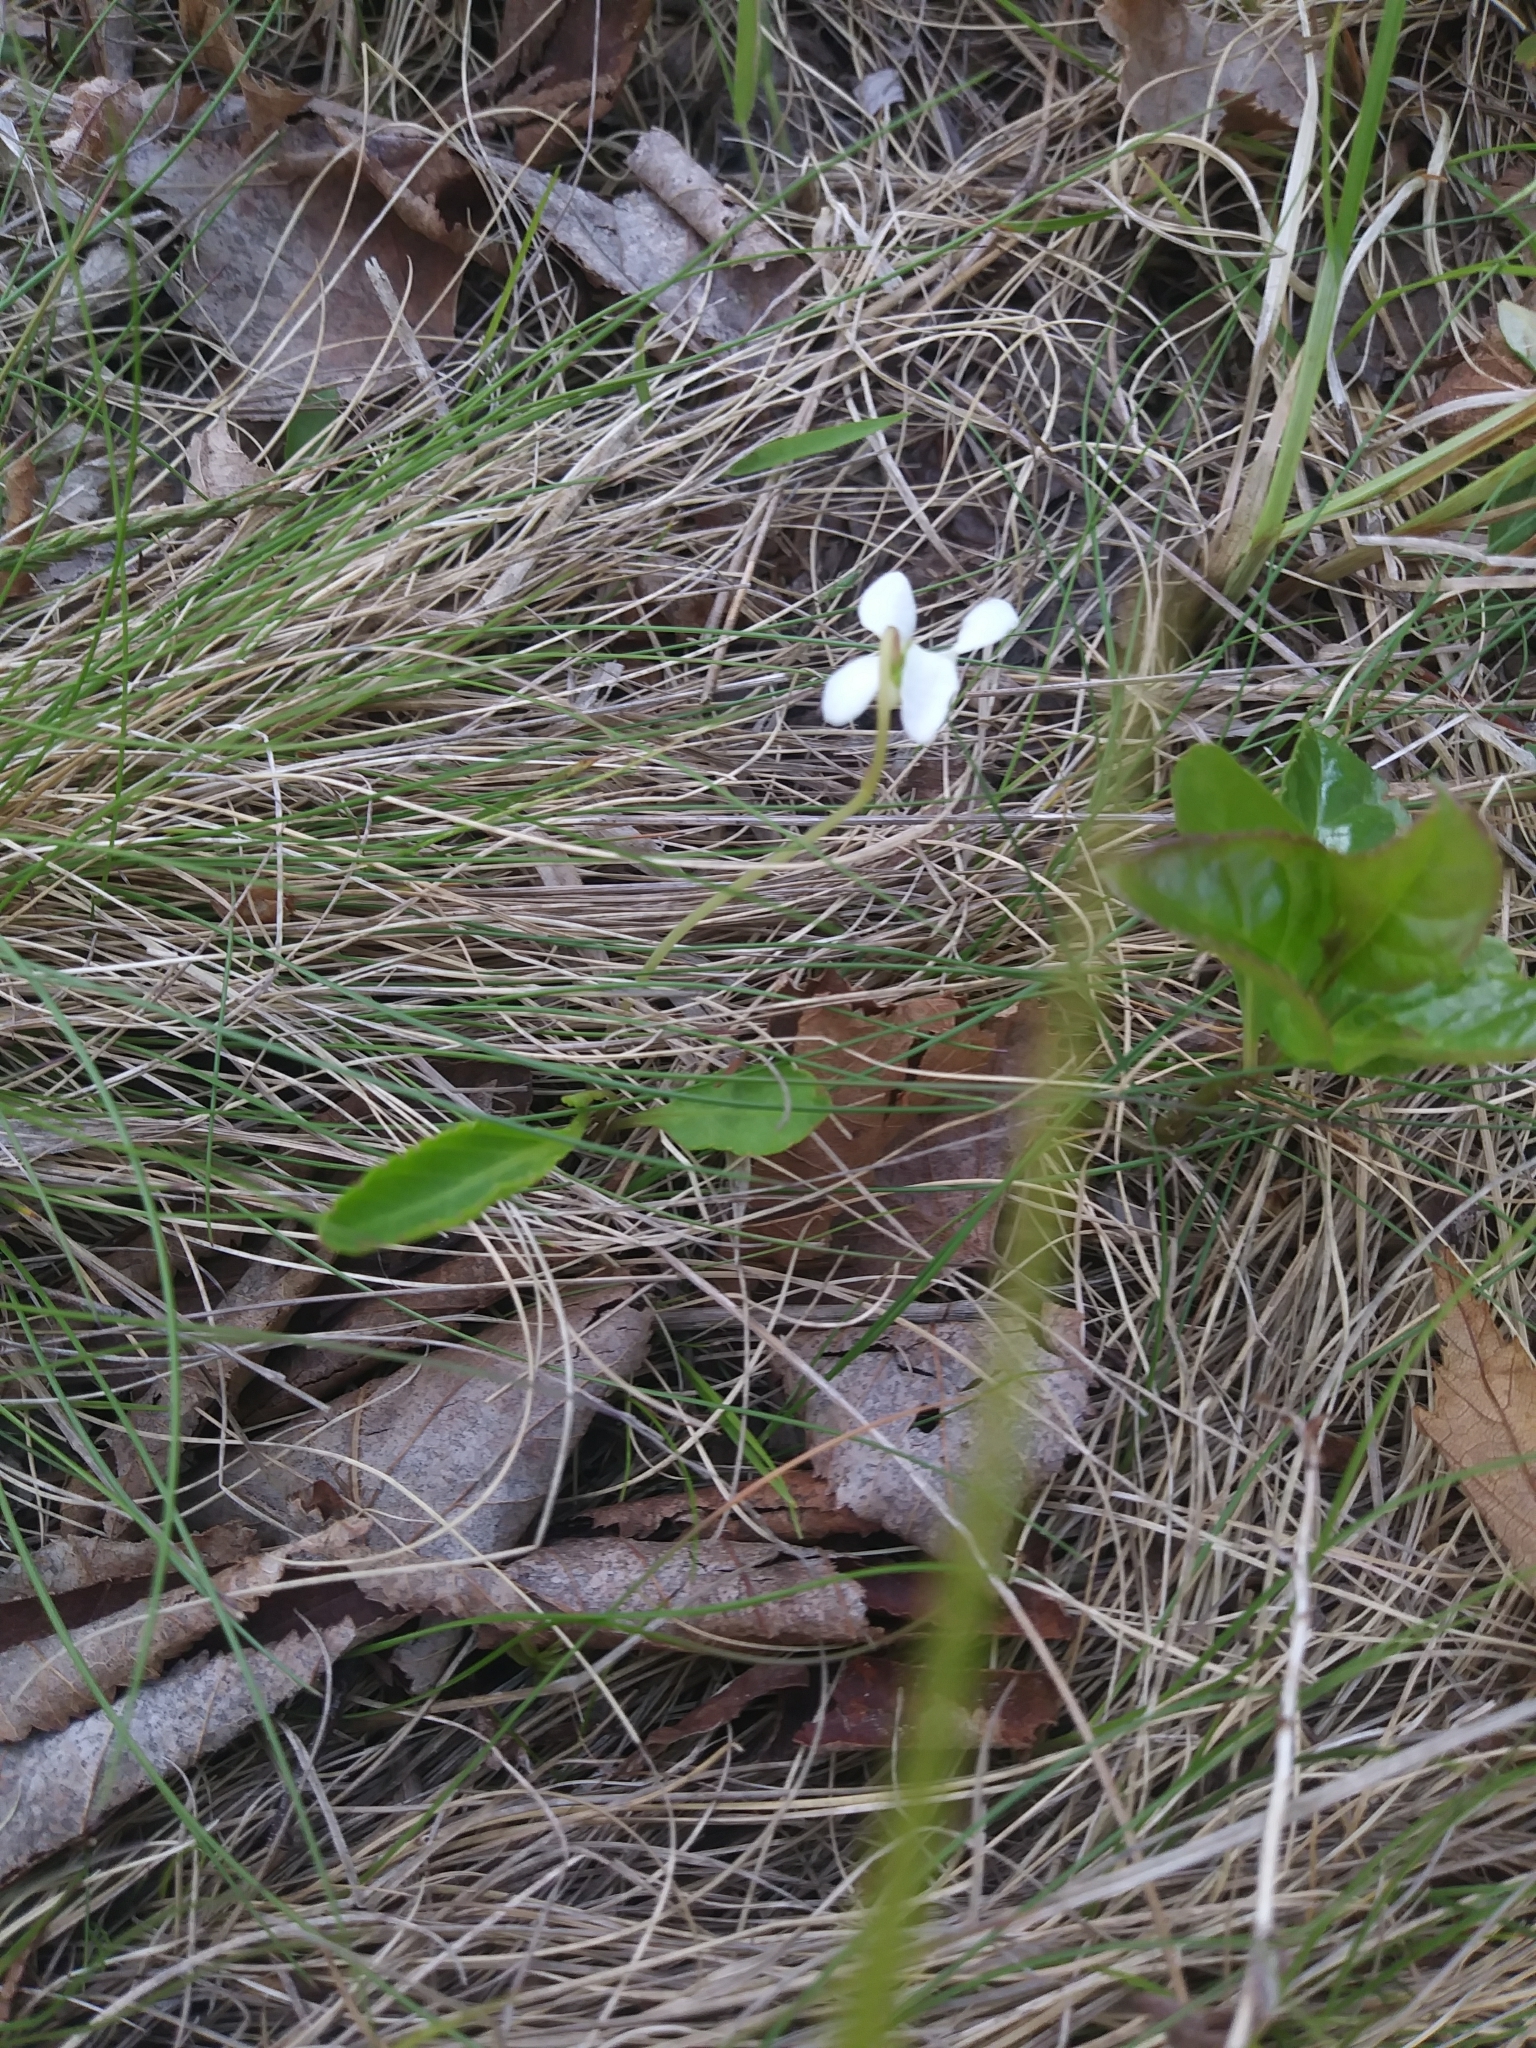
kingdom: Plantae
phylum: Tracheophyta
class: Magnoliopsida
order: Malpighiales
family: Violaceae
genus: Viola
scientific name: Viola lanceolata
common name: Bog white violet
